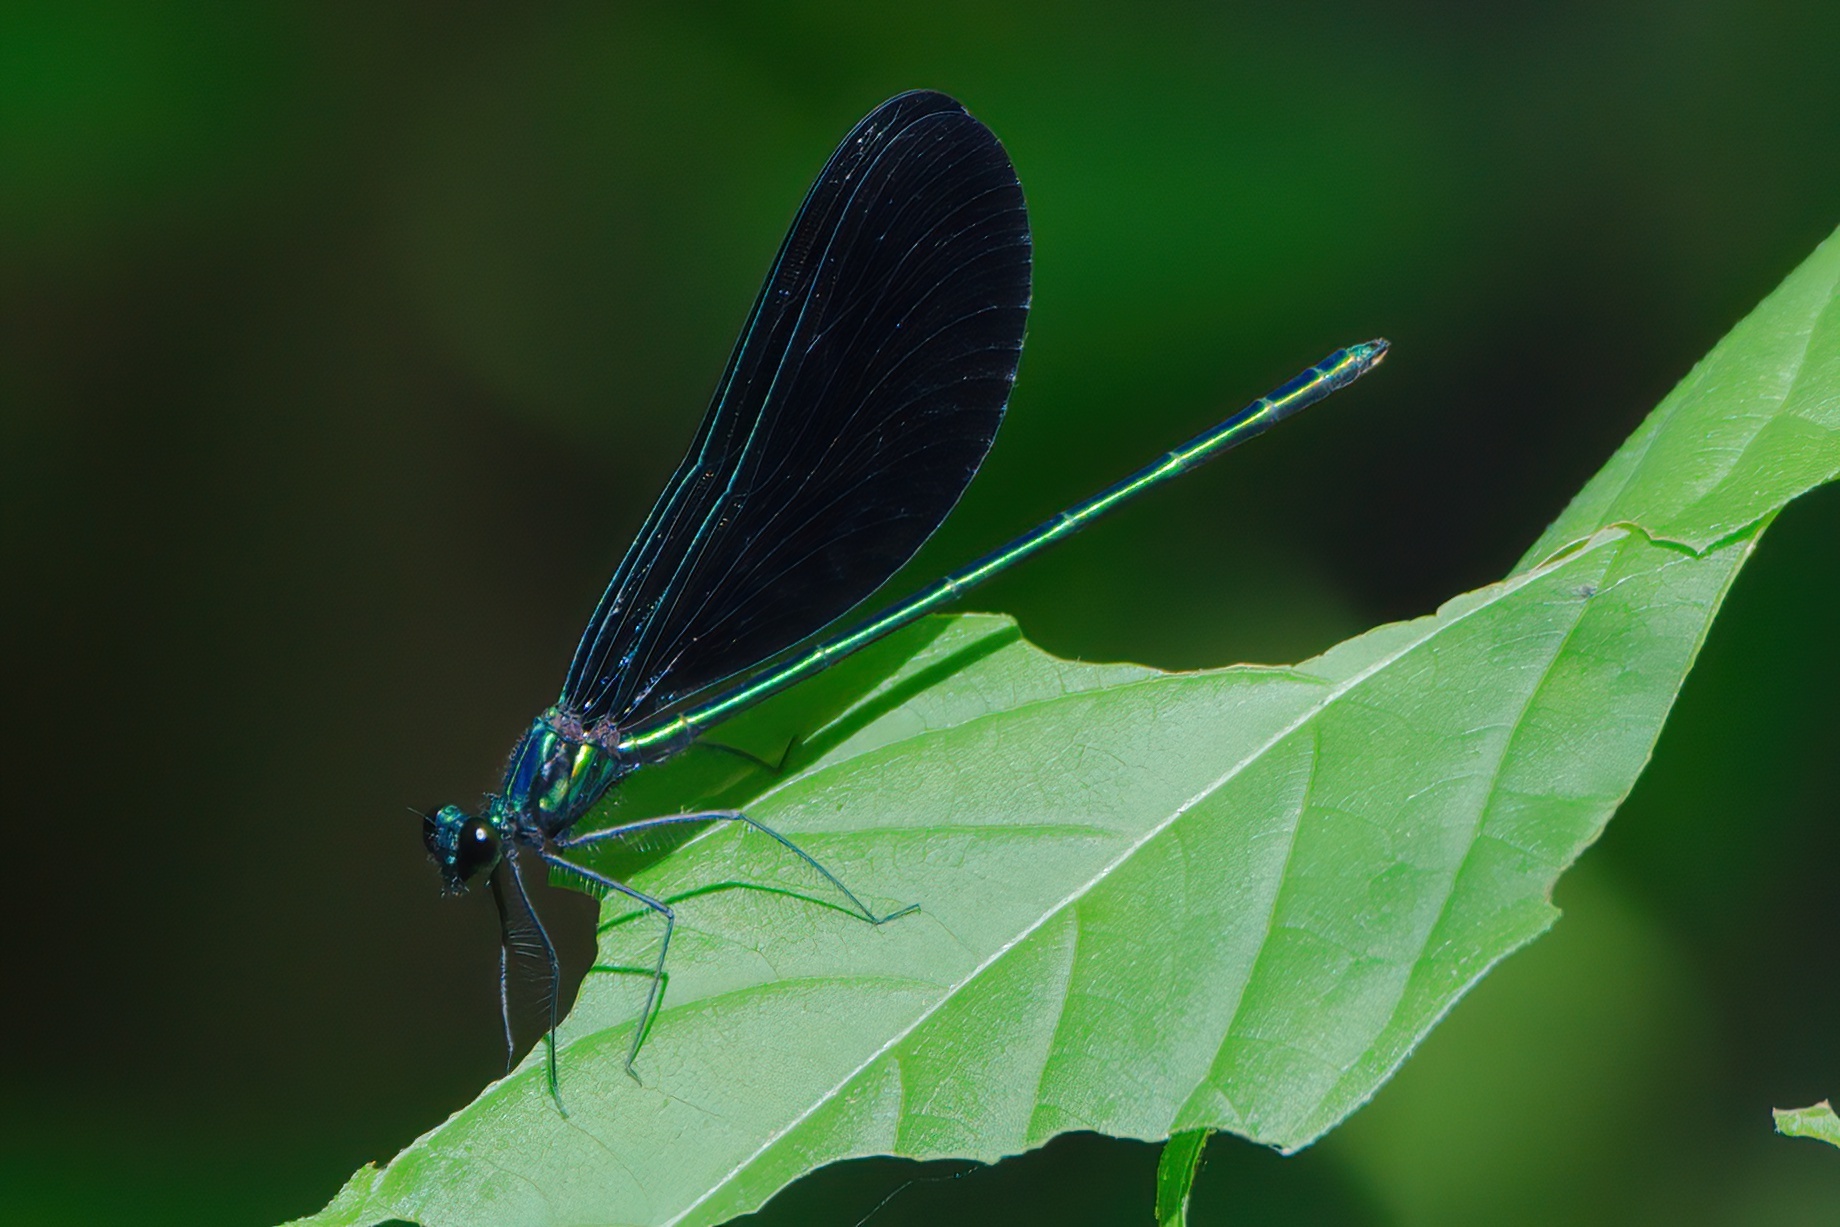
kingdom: Animalia
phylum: Arthropoda
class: Insecta
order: Odonata
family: Calopterygidae
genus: Calopteryx
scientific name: Calopteryx maculata
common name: Ebony jewelwing
